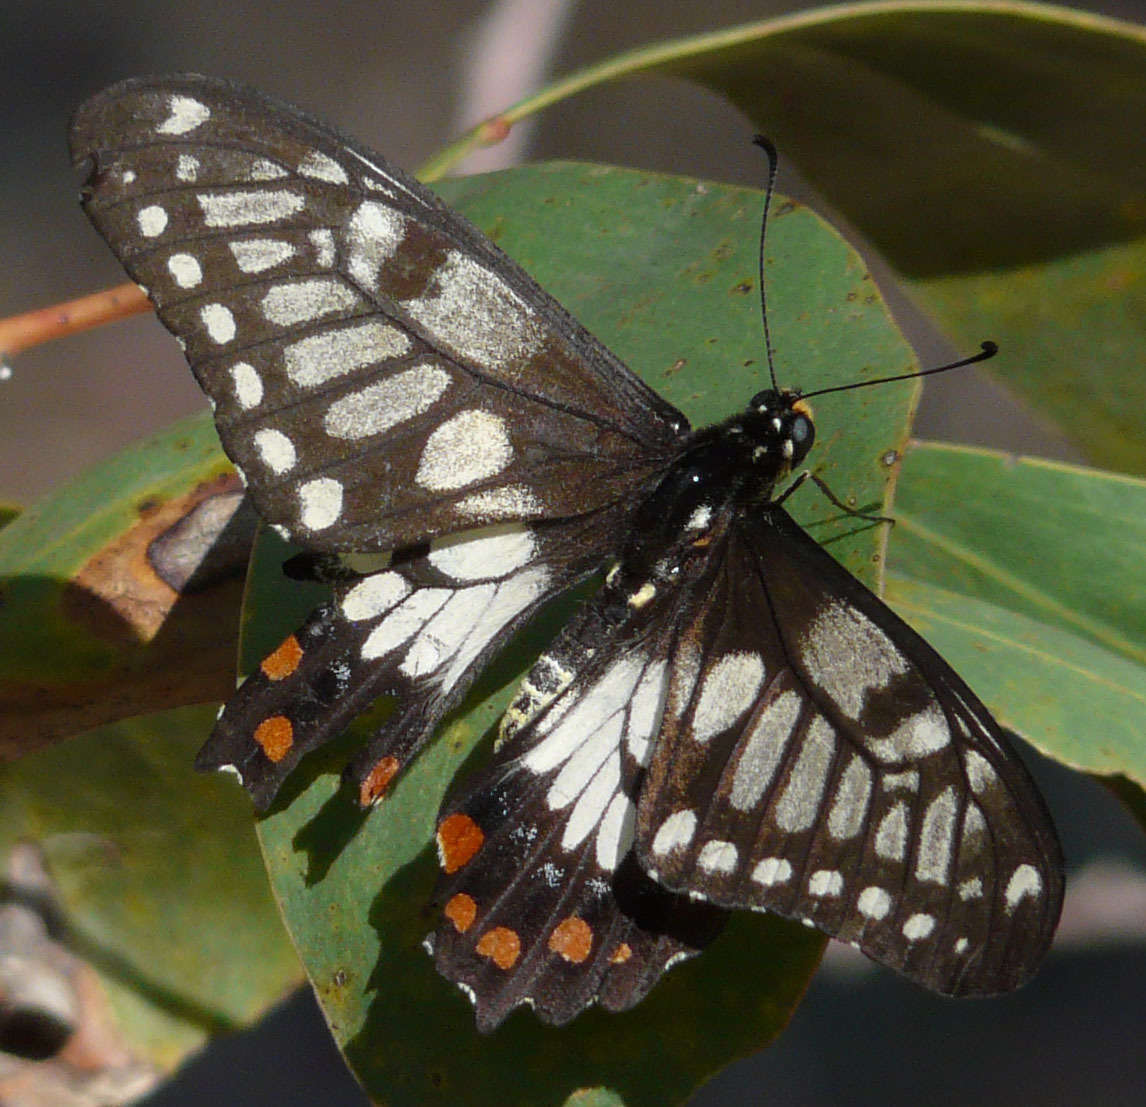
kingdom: Animalia
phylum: Arthropoda
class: Insecta
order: Lepidoptera
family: Papilionidae
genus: Papilio
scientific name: Papilio anactus
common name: Dingy swallowtail
